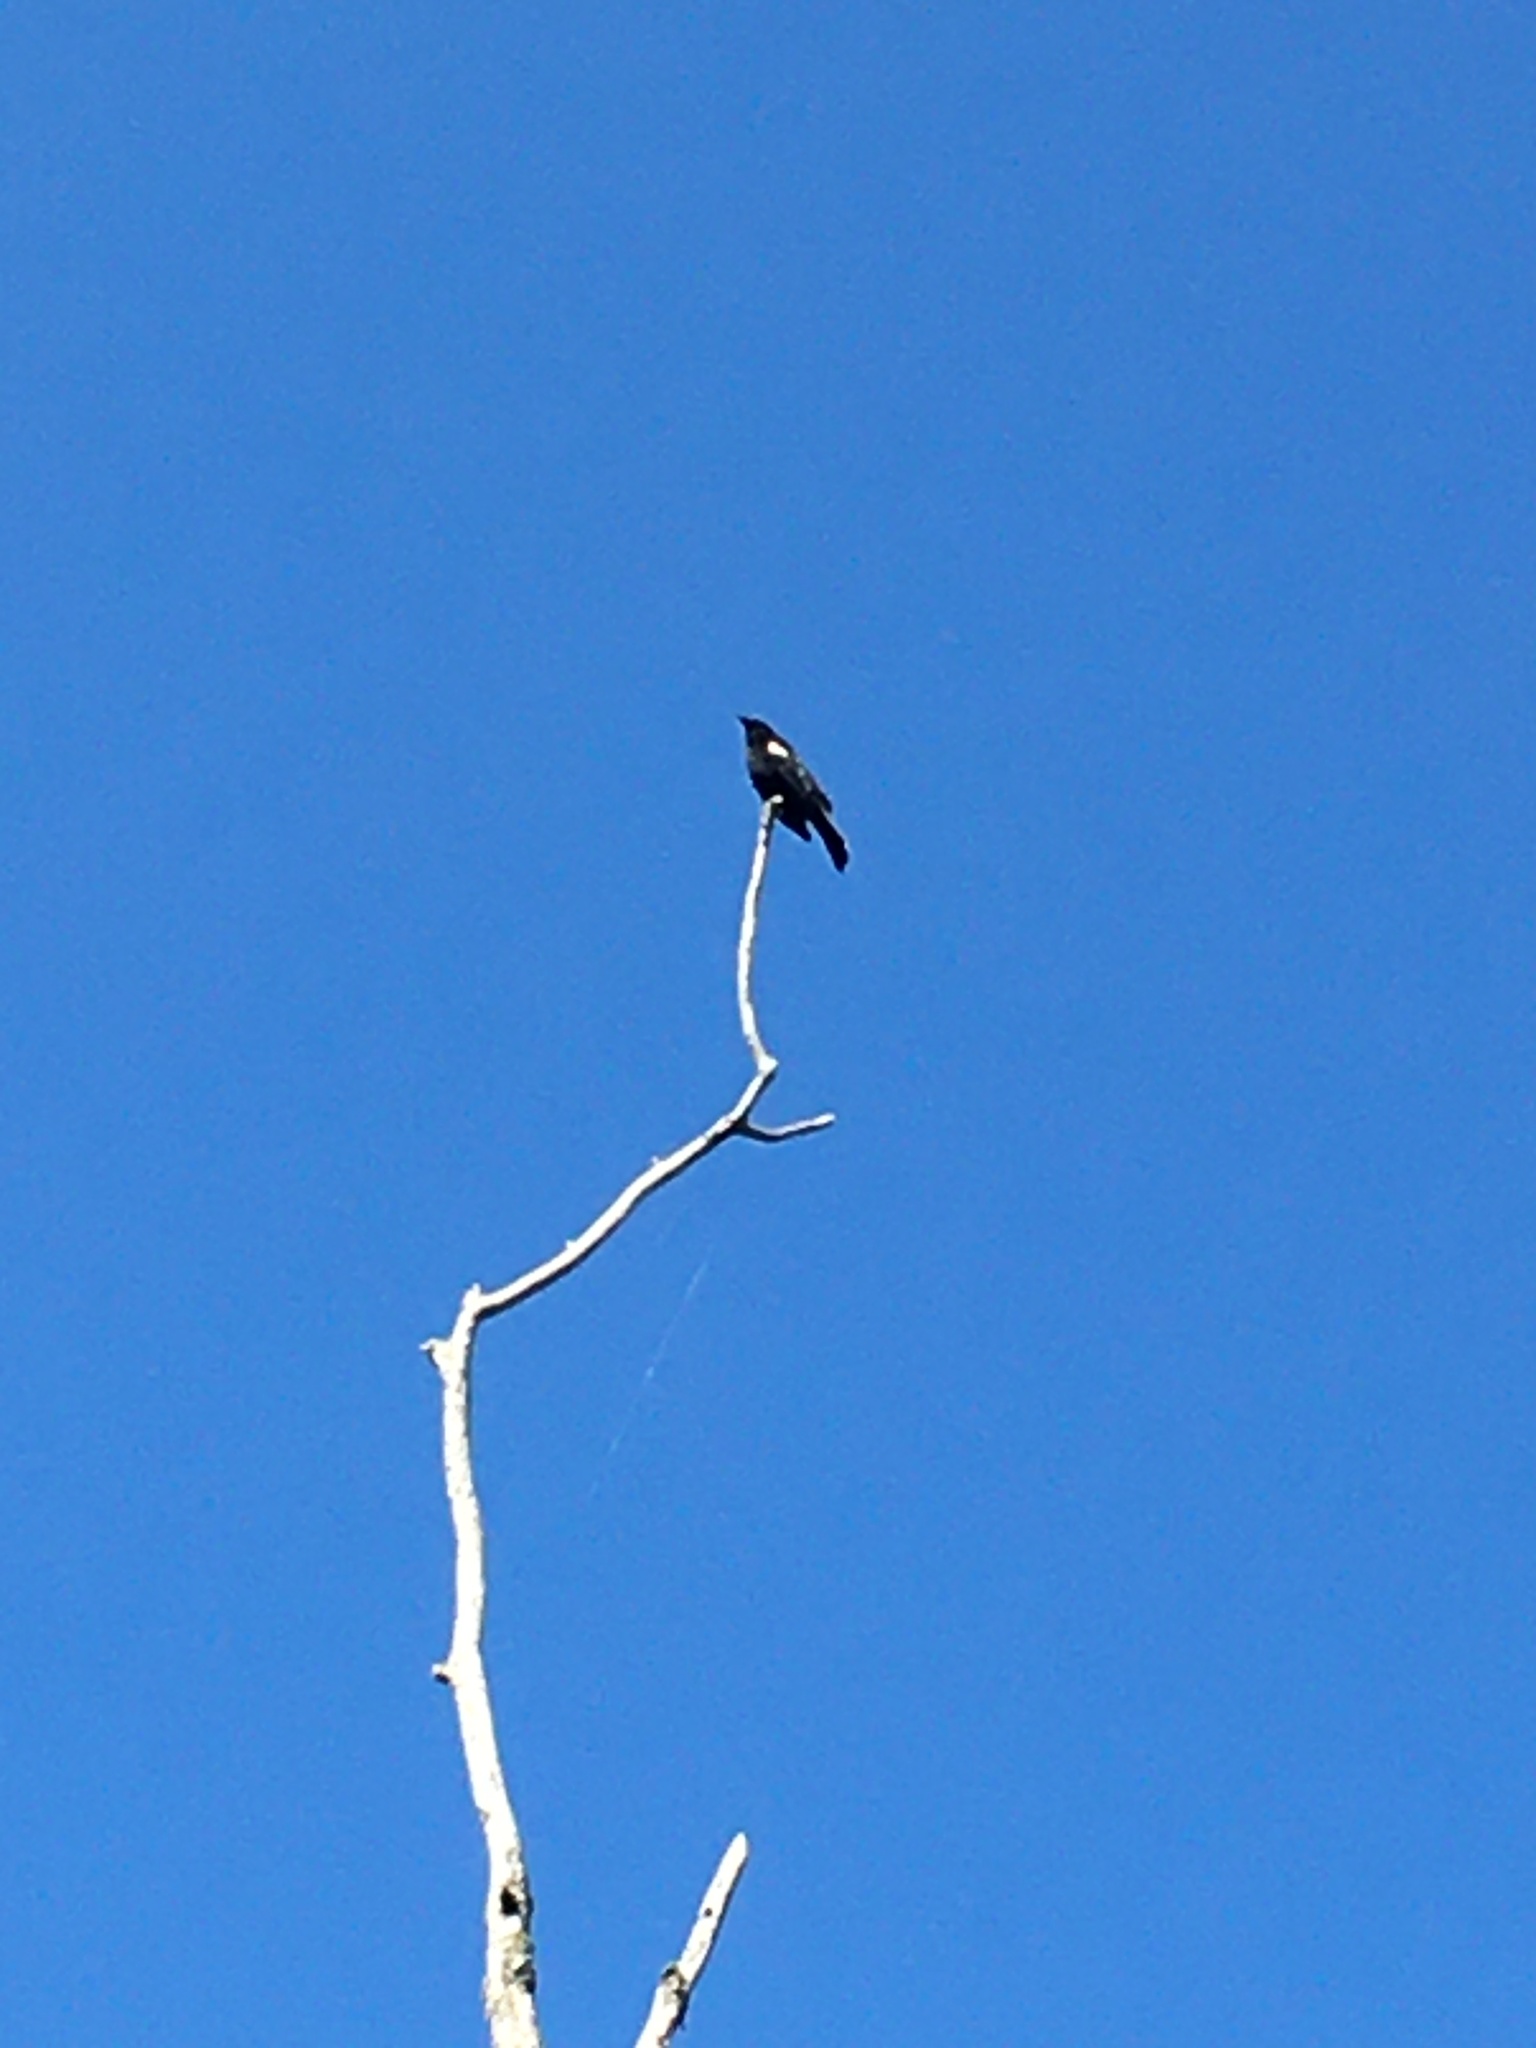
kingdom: Animalia
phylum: Chordata
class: Aves
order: Passeriformes
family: Icteridae
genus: Agelaius
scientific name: Agelaius phoeniceus
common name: Red-winged blackbird
